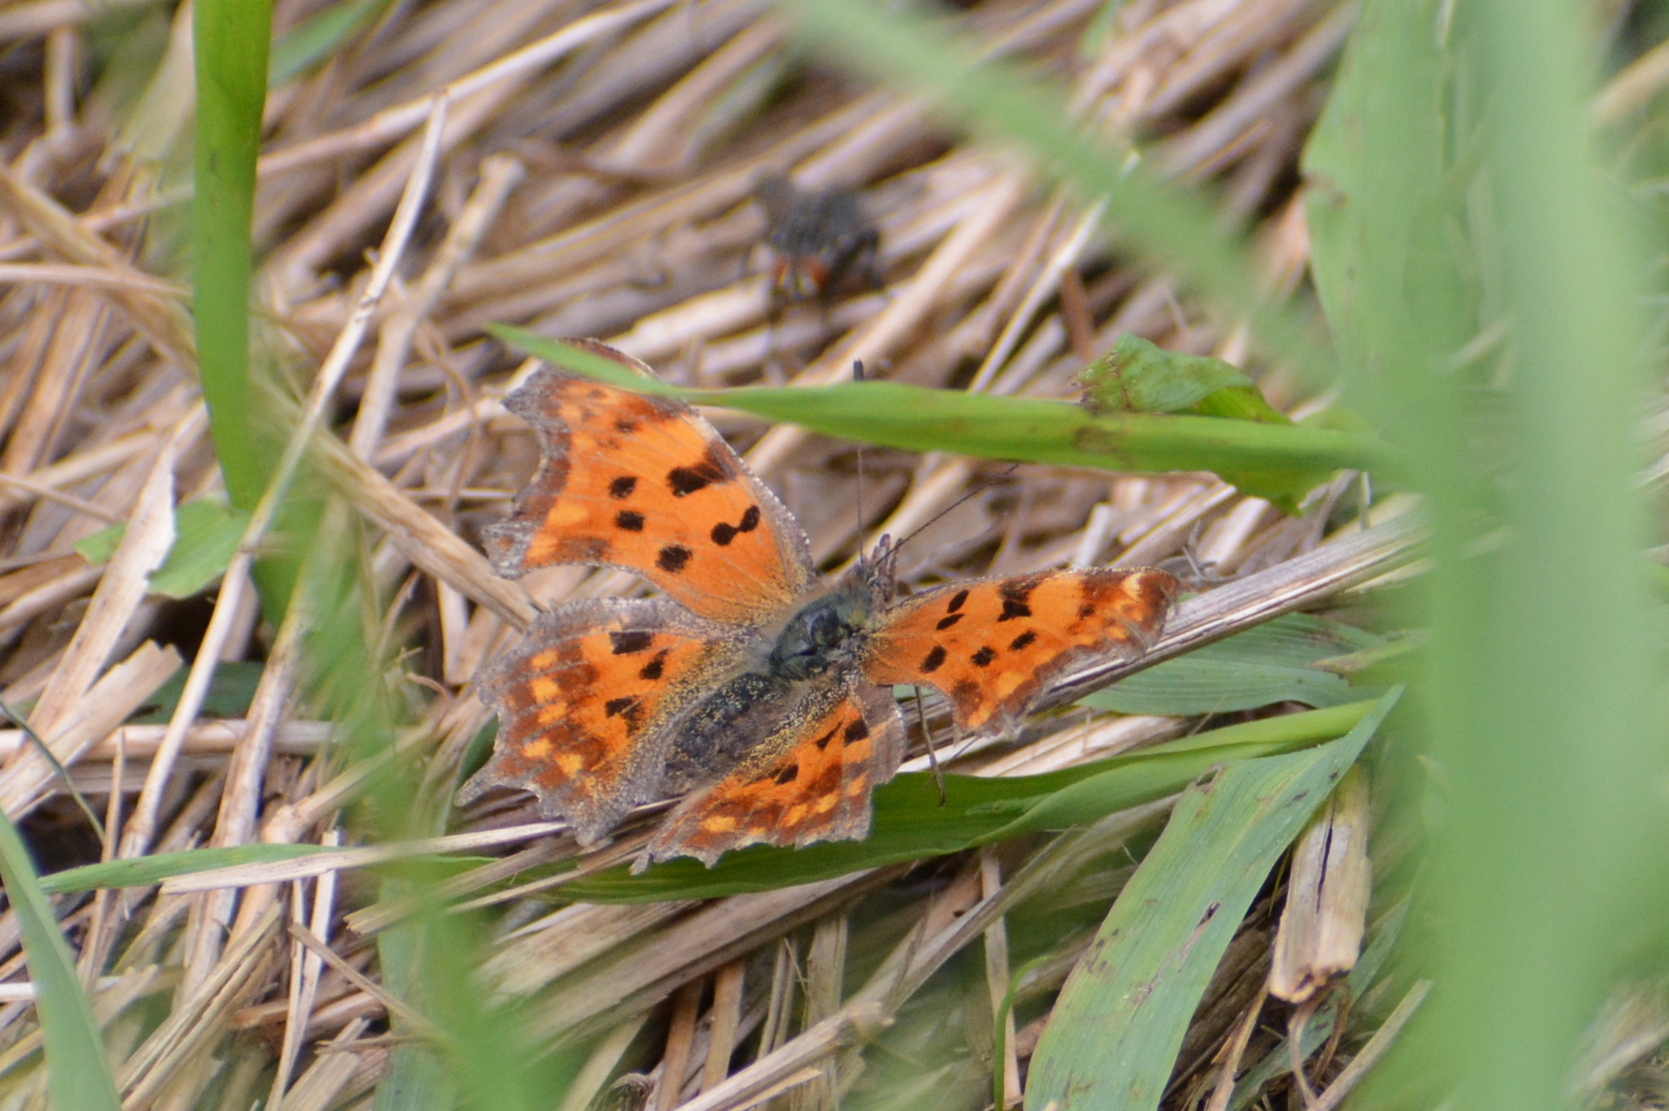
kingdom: Animalia
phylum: Arthropoda
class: Insecta
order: Lepidoptera
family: Nymphalidae
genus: Polygonia
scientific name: Polygonia c-album
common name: Comma
